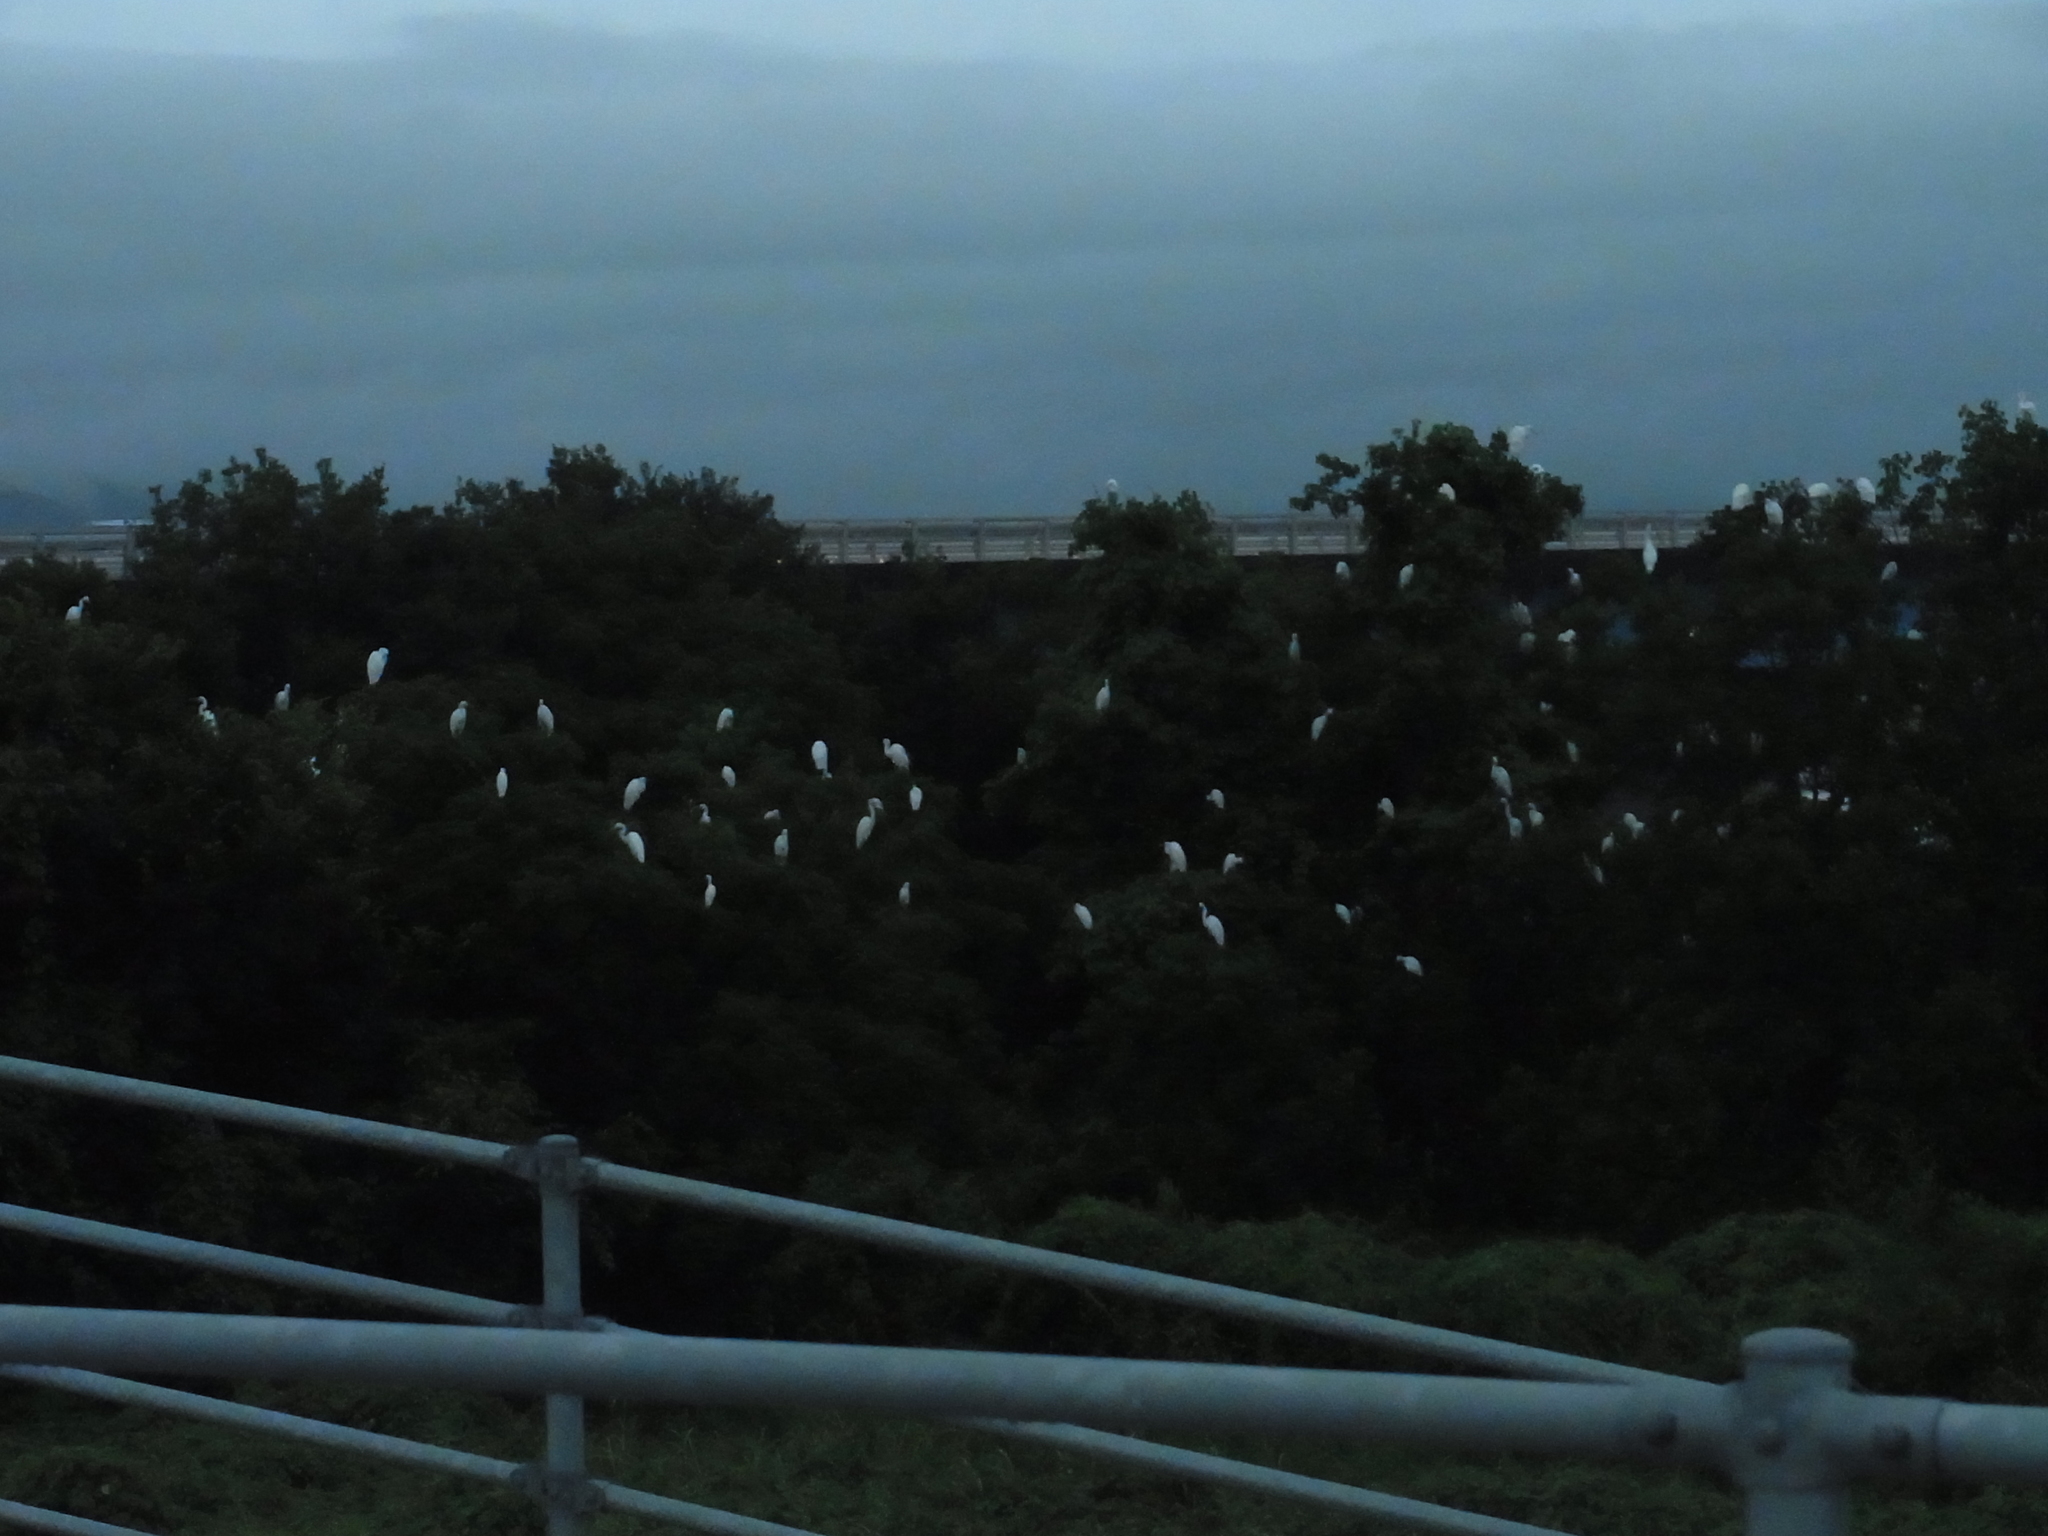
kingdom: Animalia
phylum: Chordata
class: Aves
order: Pelecaniformes
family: Ardeidae
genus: Ardea
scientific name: Ardea alba
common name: Great egret
